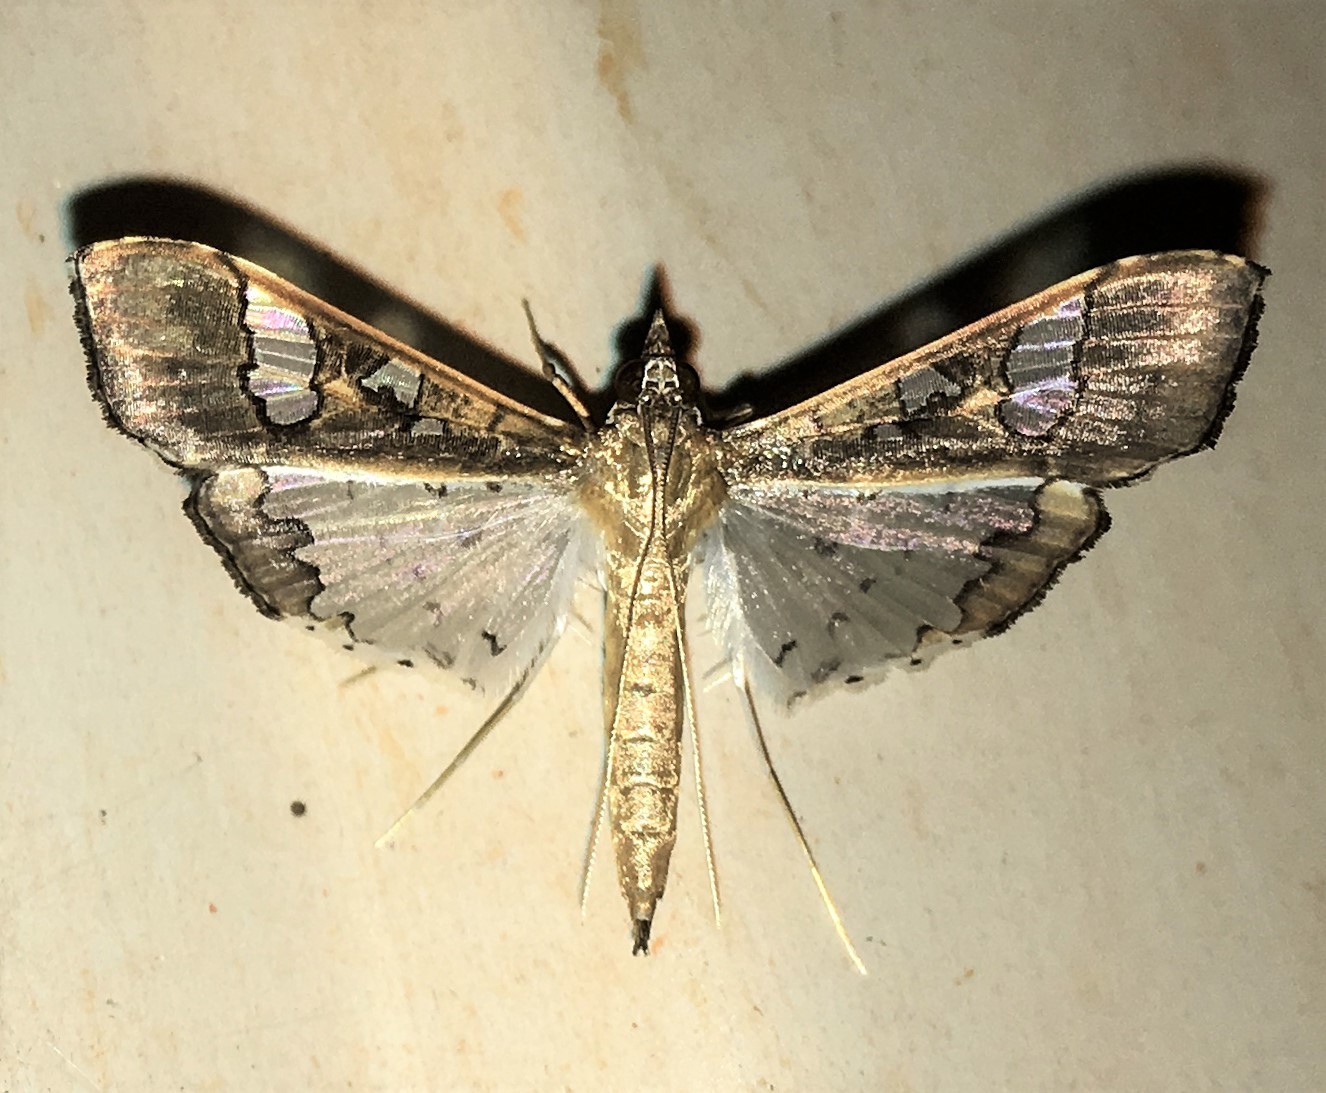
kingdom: Animalia
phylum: Arthropoda
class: Insecta
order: Lepidoptera
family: Crambidae
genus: Maruca
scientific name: Maruca vitrata
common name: Maruca pod borer
